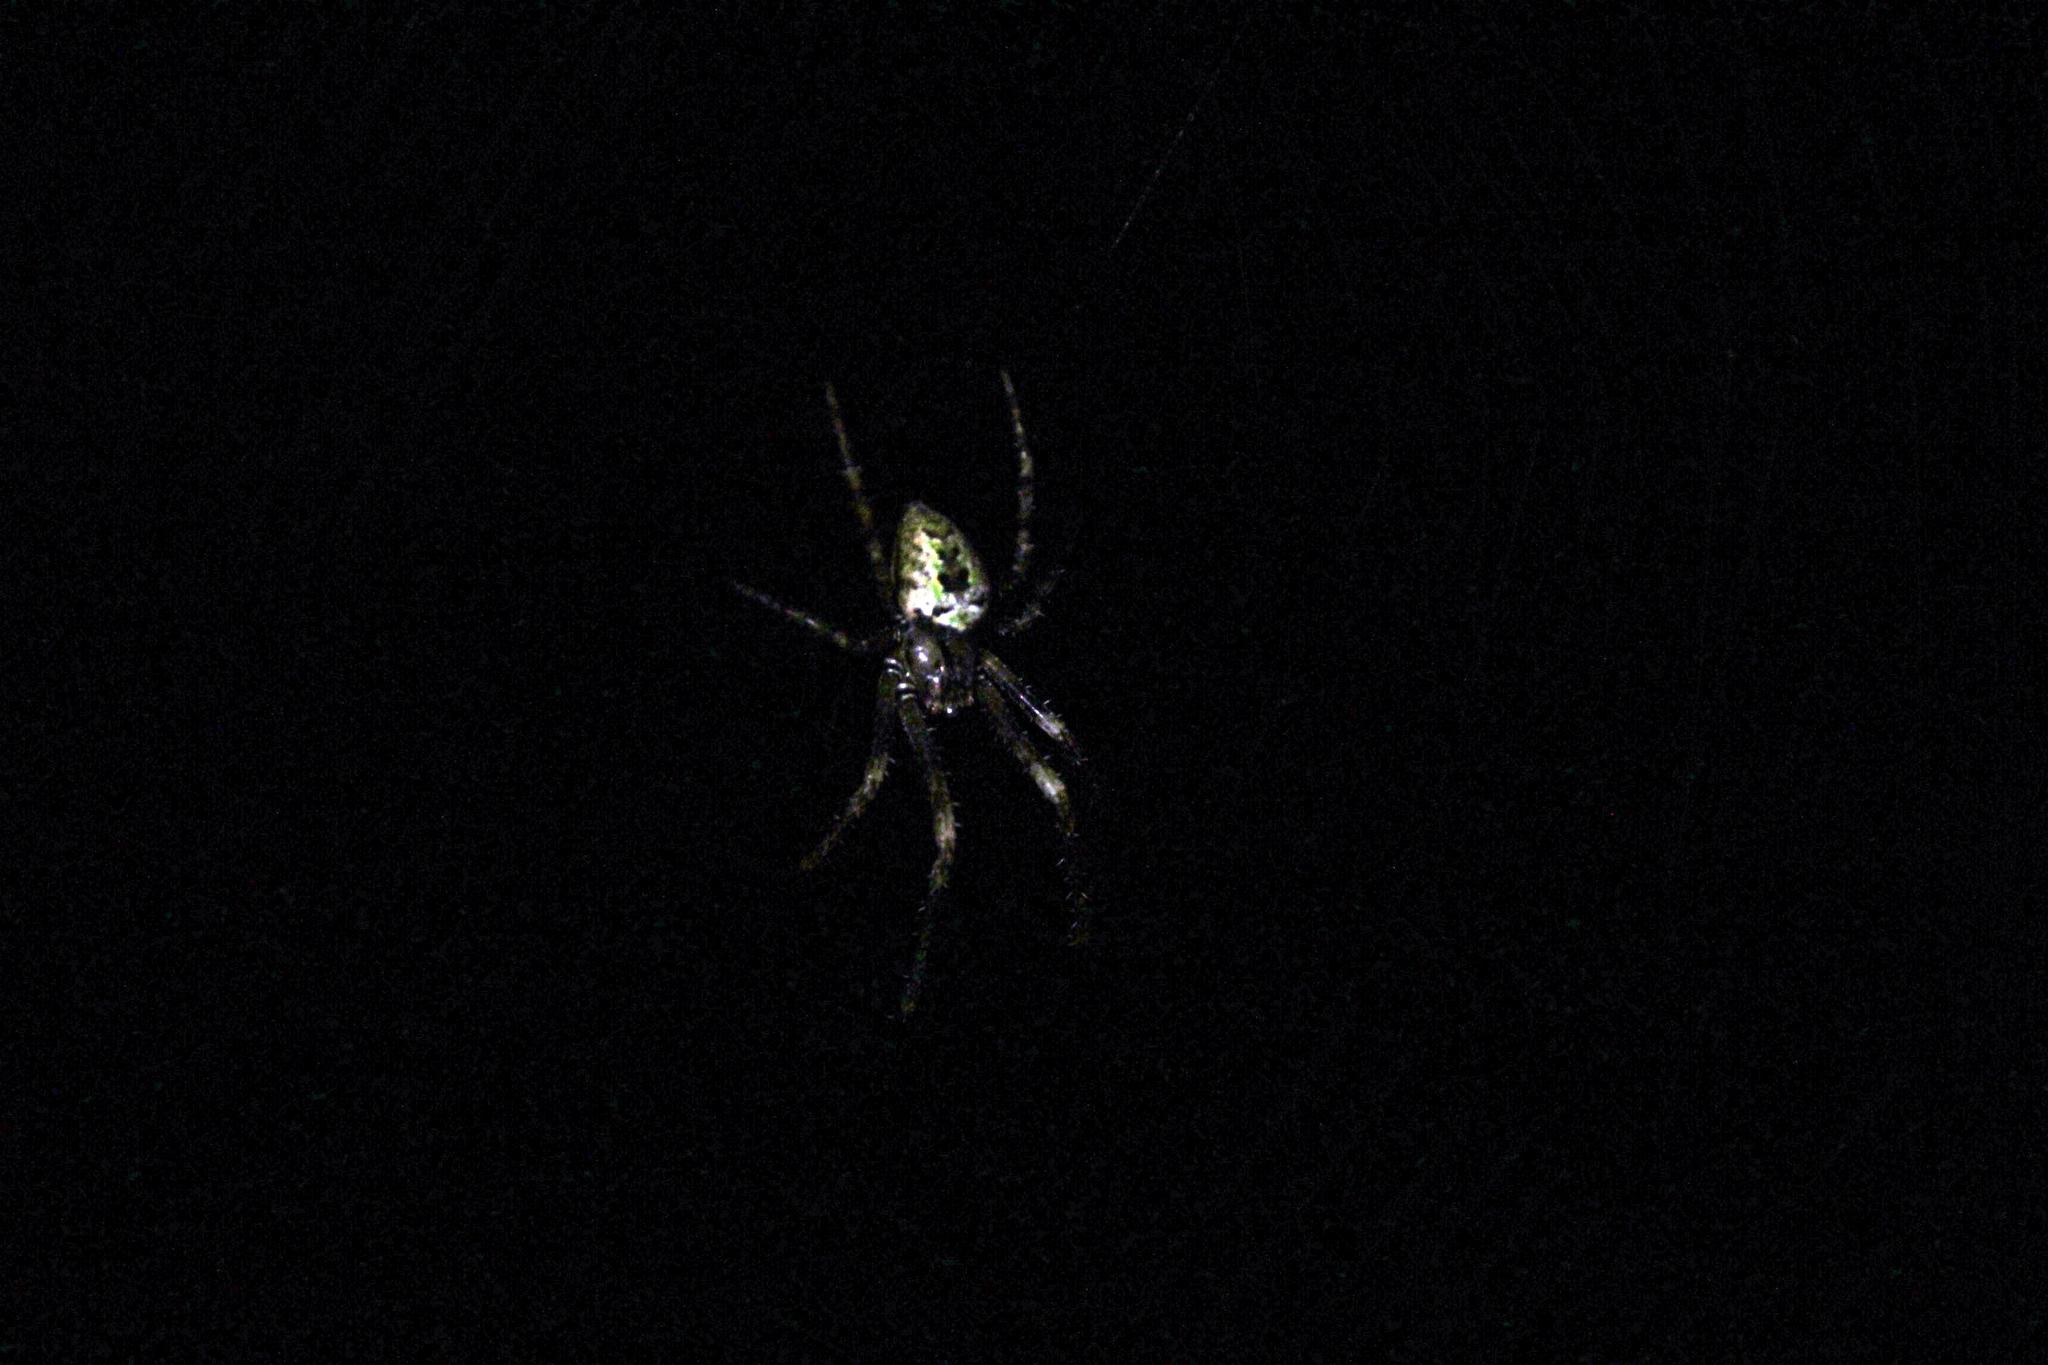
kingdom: Animalia
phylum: Arthropoda
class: Arachnida
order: Araneae
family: Tetragnathidae
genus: Allende
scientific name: Allende nigrohumeralis
